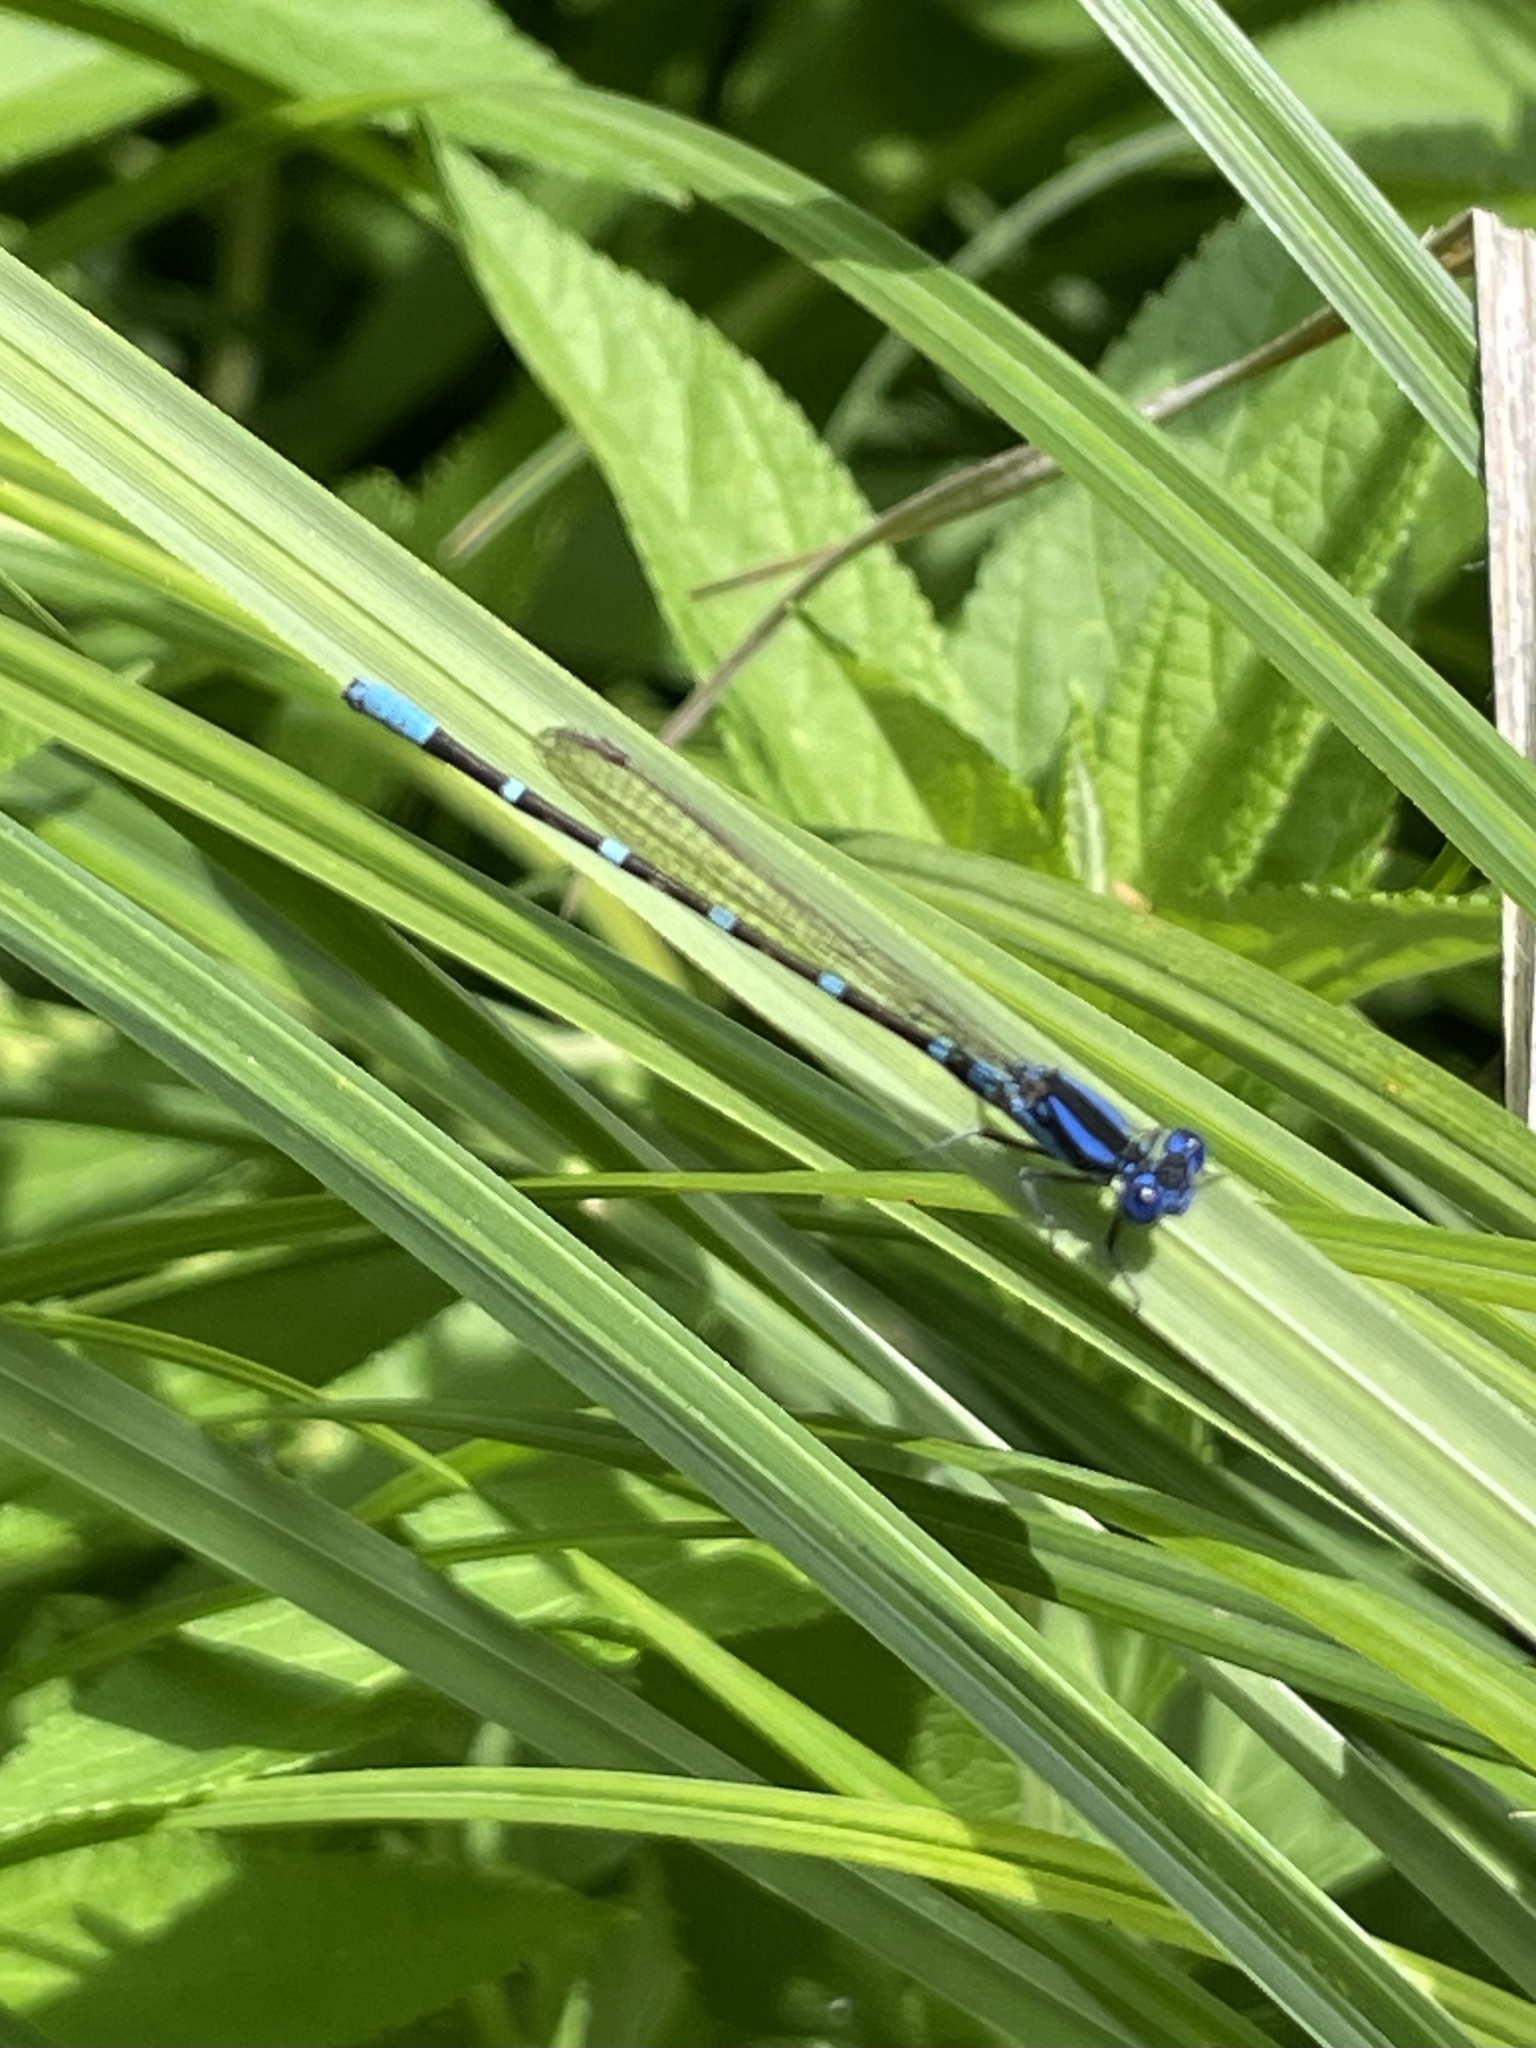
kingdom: Animalia
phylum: Arthropoda
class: Insecta
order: Odonata
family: Coenagrionidae
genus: Argia
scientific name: Argia sedula
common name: Blue-ringed dancer
